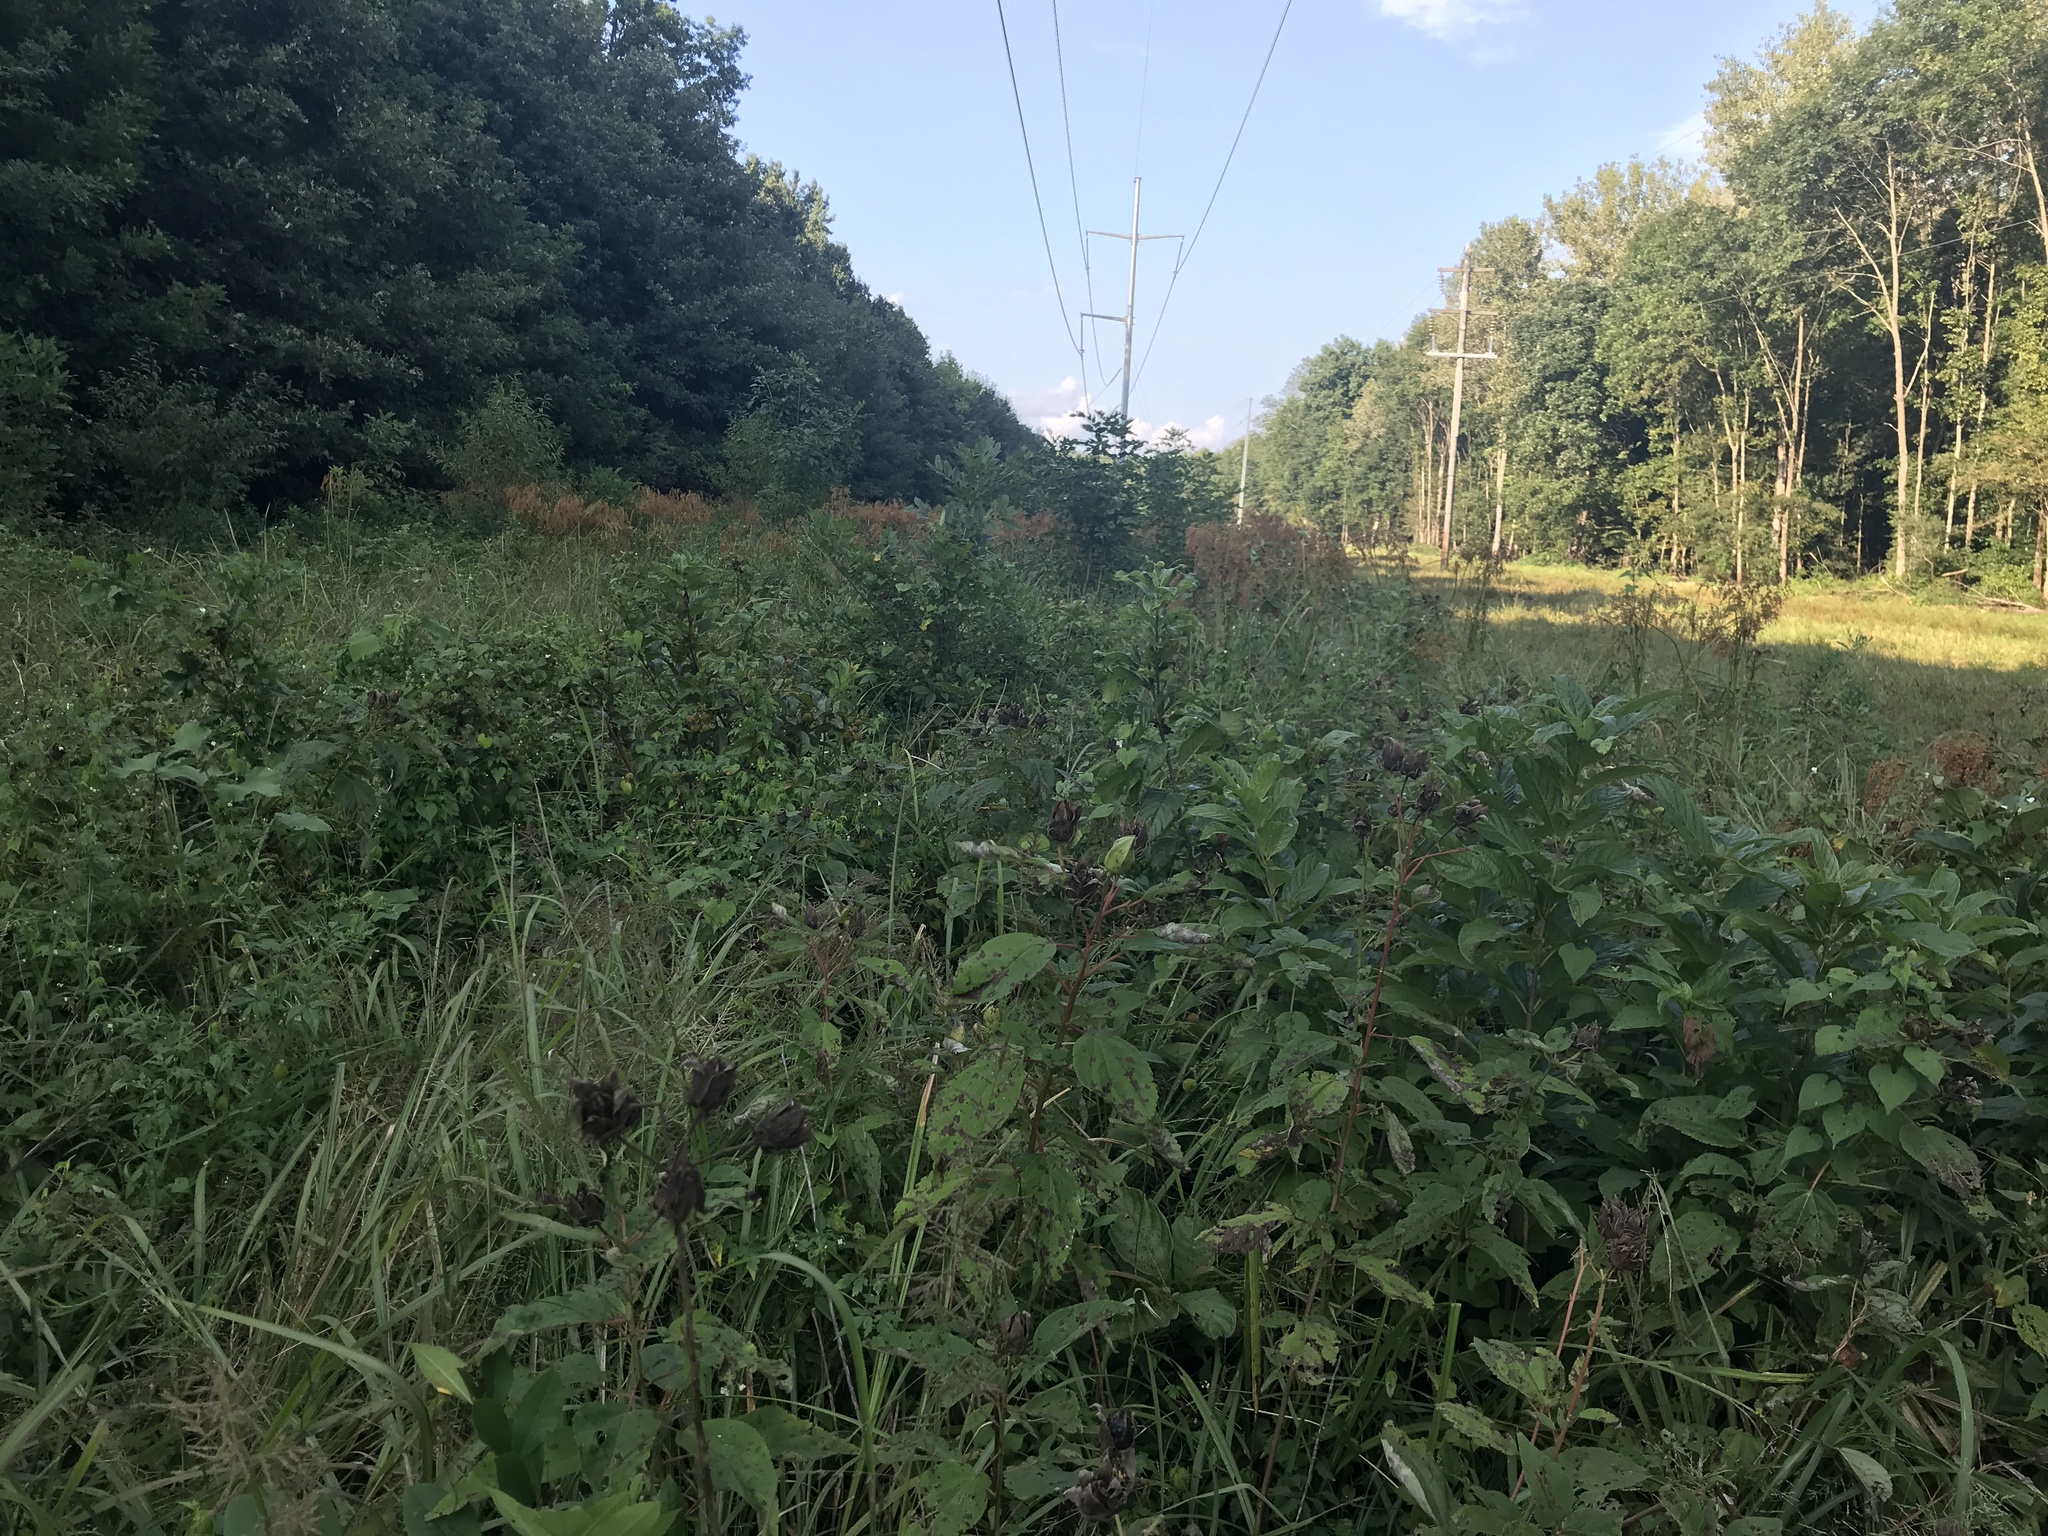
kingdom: Plantae
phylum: Tracheophyta
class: Magnoliopsida
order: Malvales
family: Malvaceae
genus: Hibiscus
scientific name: Hibiscus moscheutos
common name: Common rose-mallow
